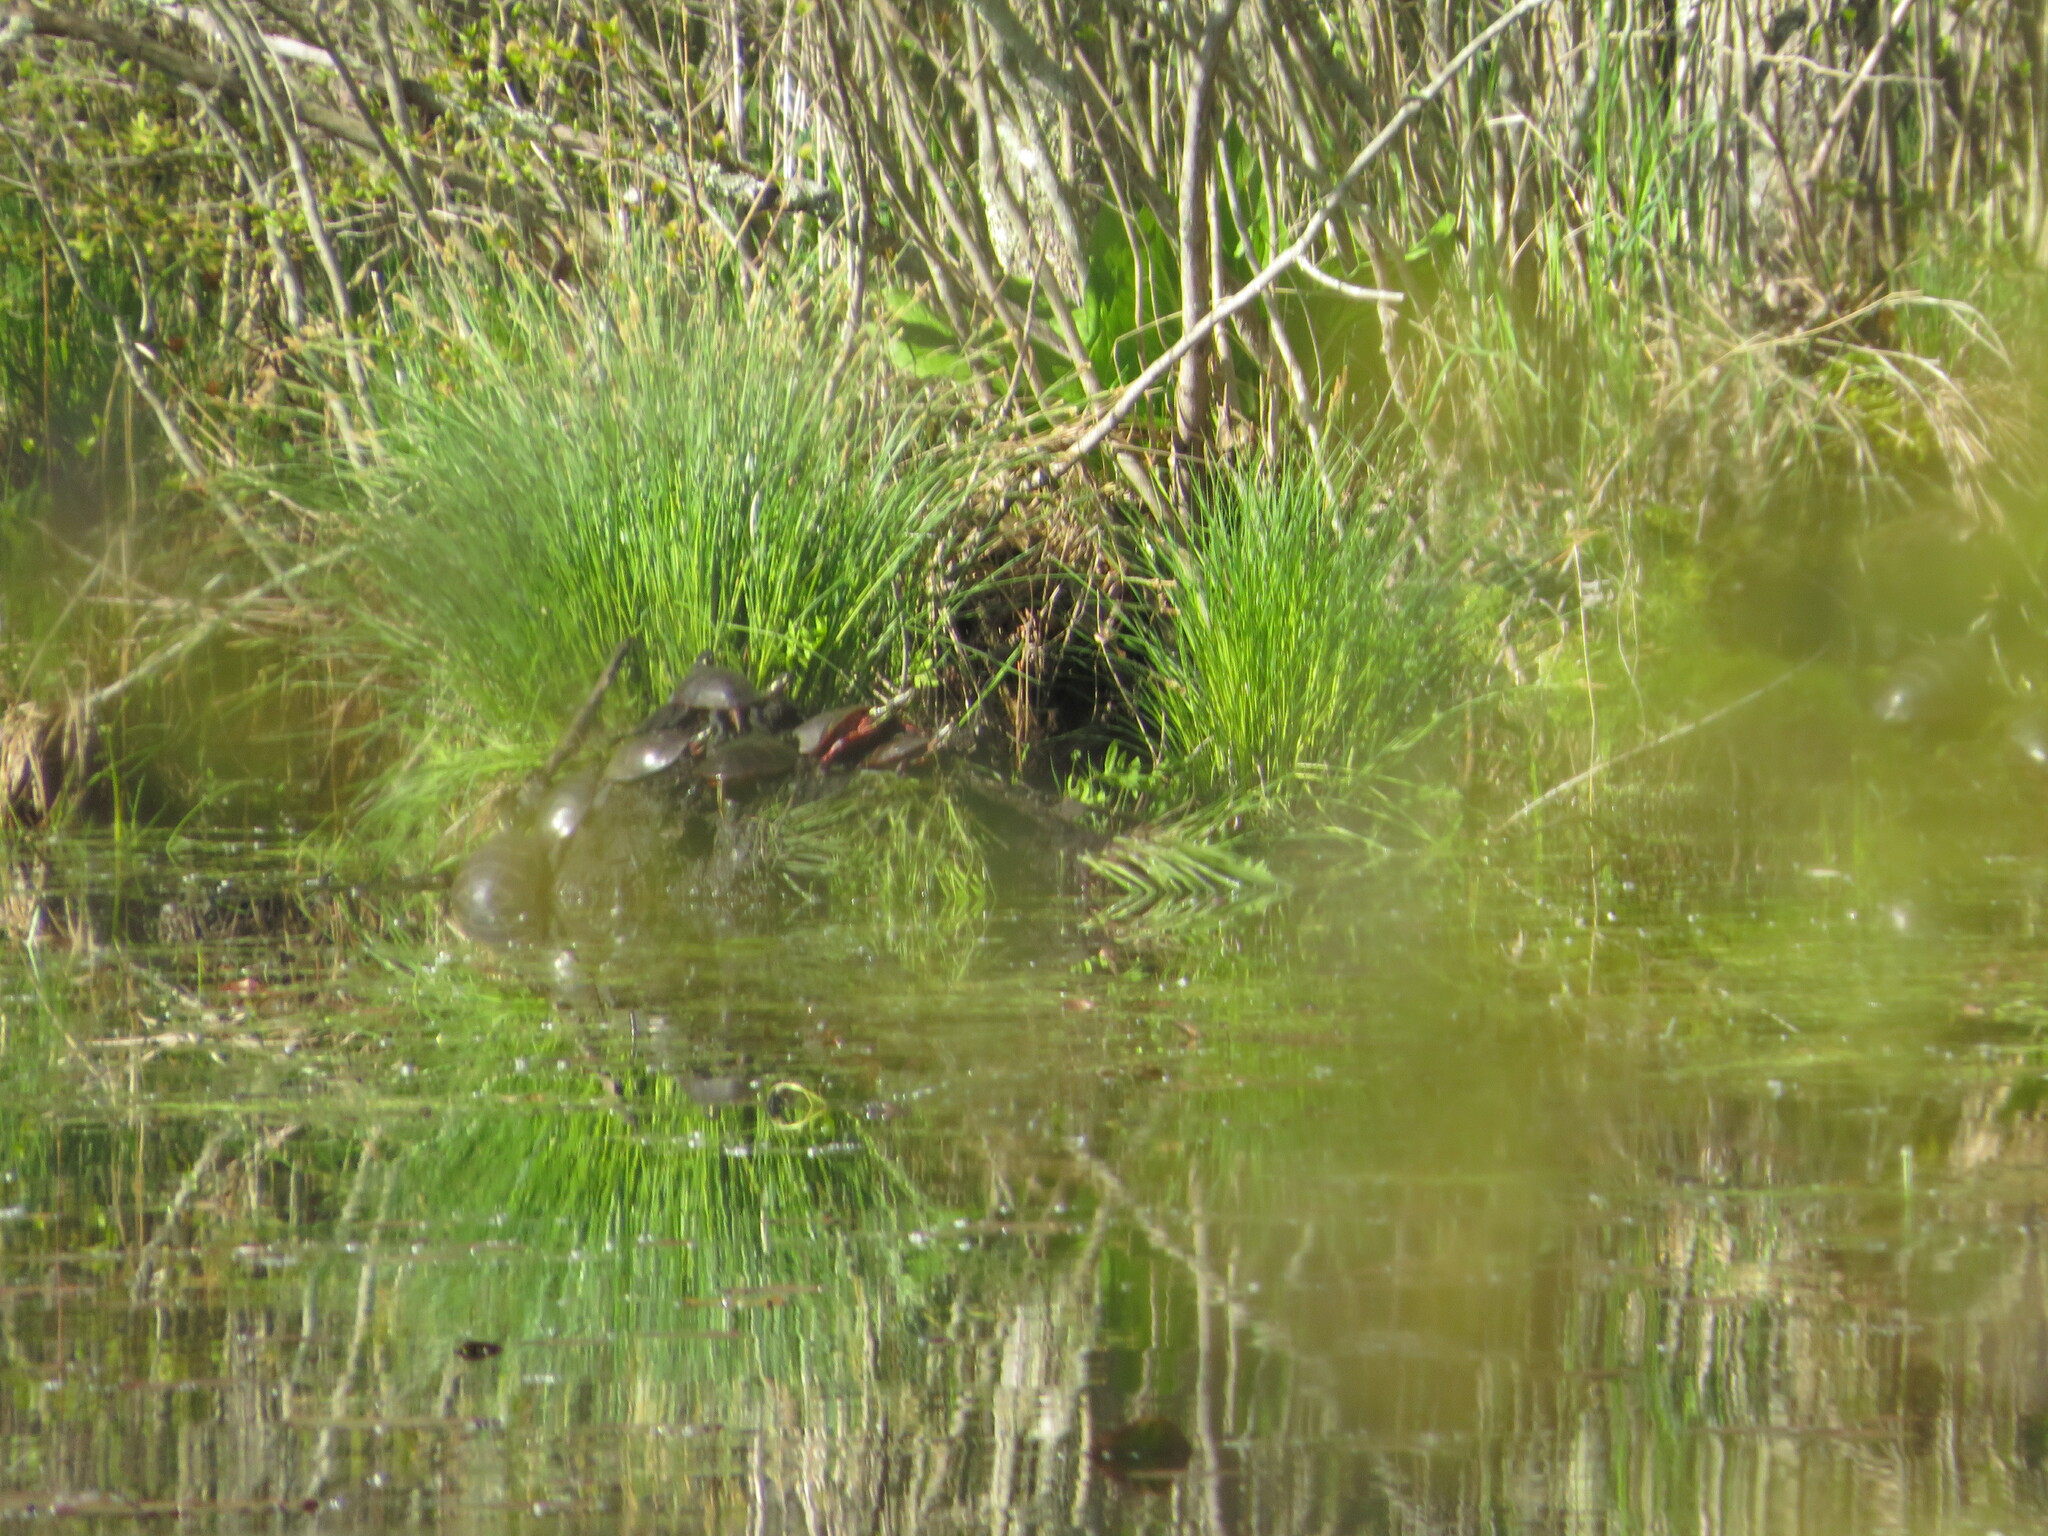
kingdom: Animalia
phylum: Chordata
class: Testudines
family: Emydidae
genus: Chrysemys
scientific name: Chrysemys picta
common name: Painted turtle
